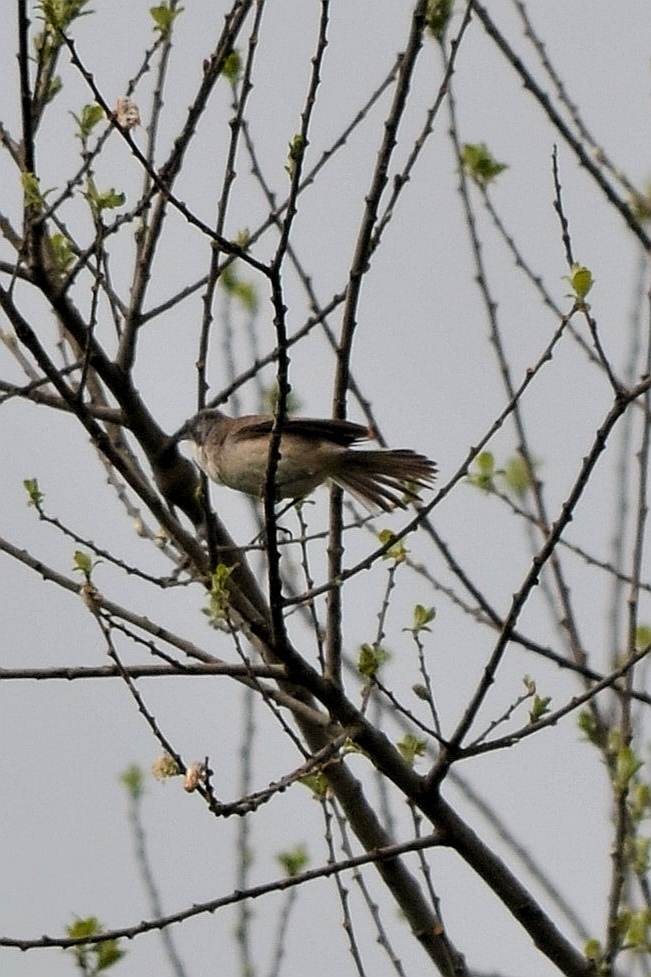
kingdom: Animalia
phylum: Chordata
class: Aves
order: Passeriformes
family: Sylviidae
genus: Sylvia
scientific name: Sylvia curruca
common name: Lesser whitethroat
